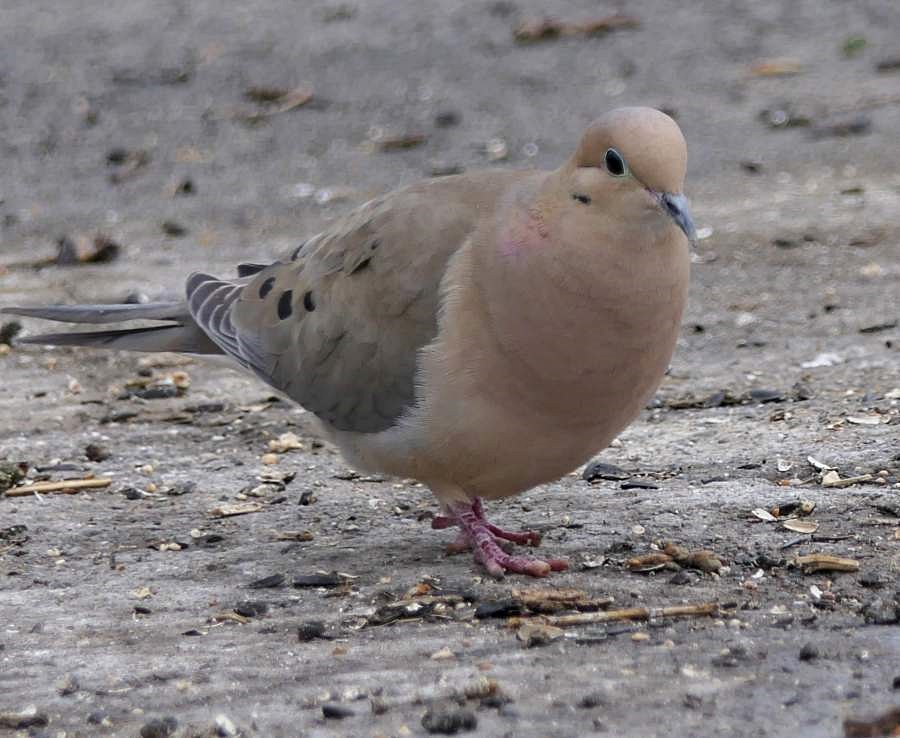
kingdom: Animalia
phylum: Chordata
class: Aves
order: Columbiformes
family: Columbidae
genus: Zenaida
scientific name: Zenaida macroura
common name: Mourning dove
